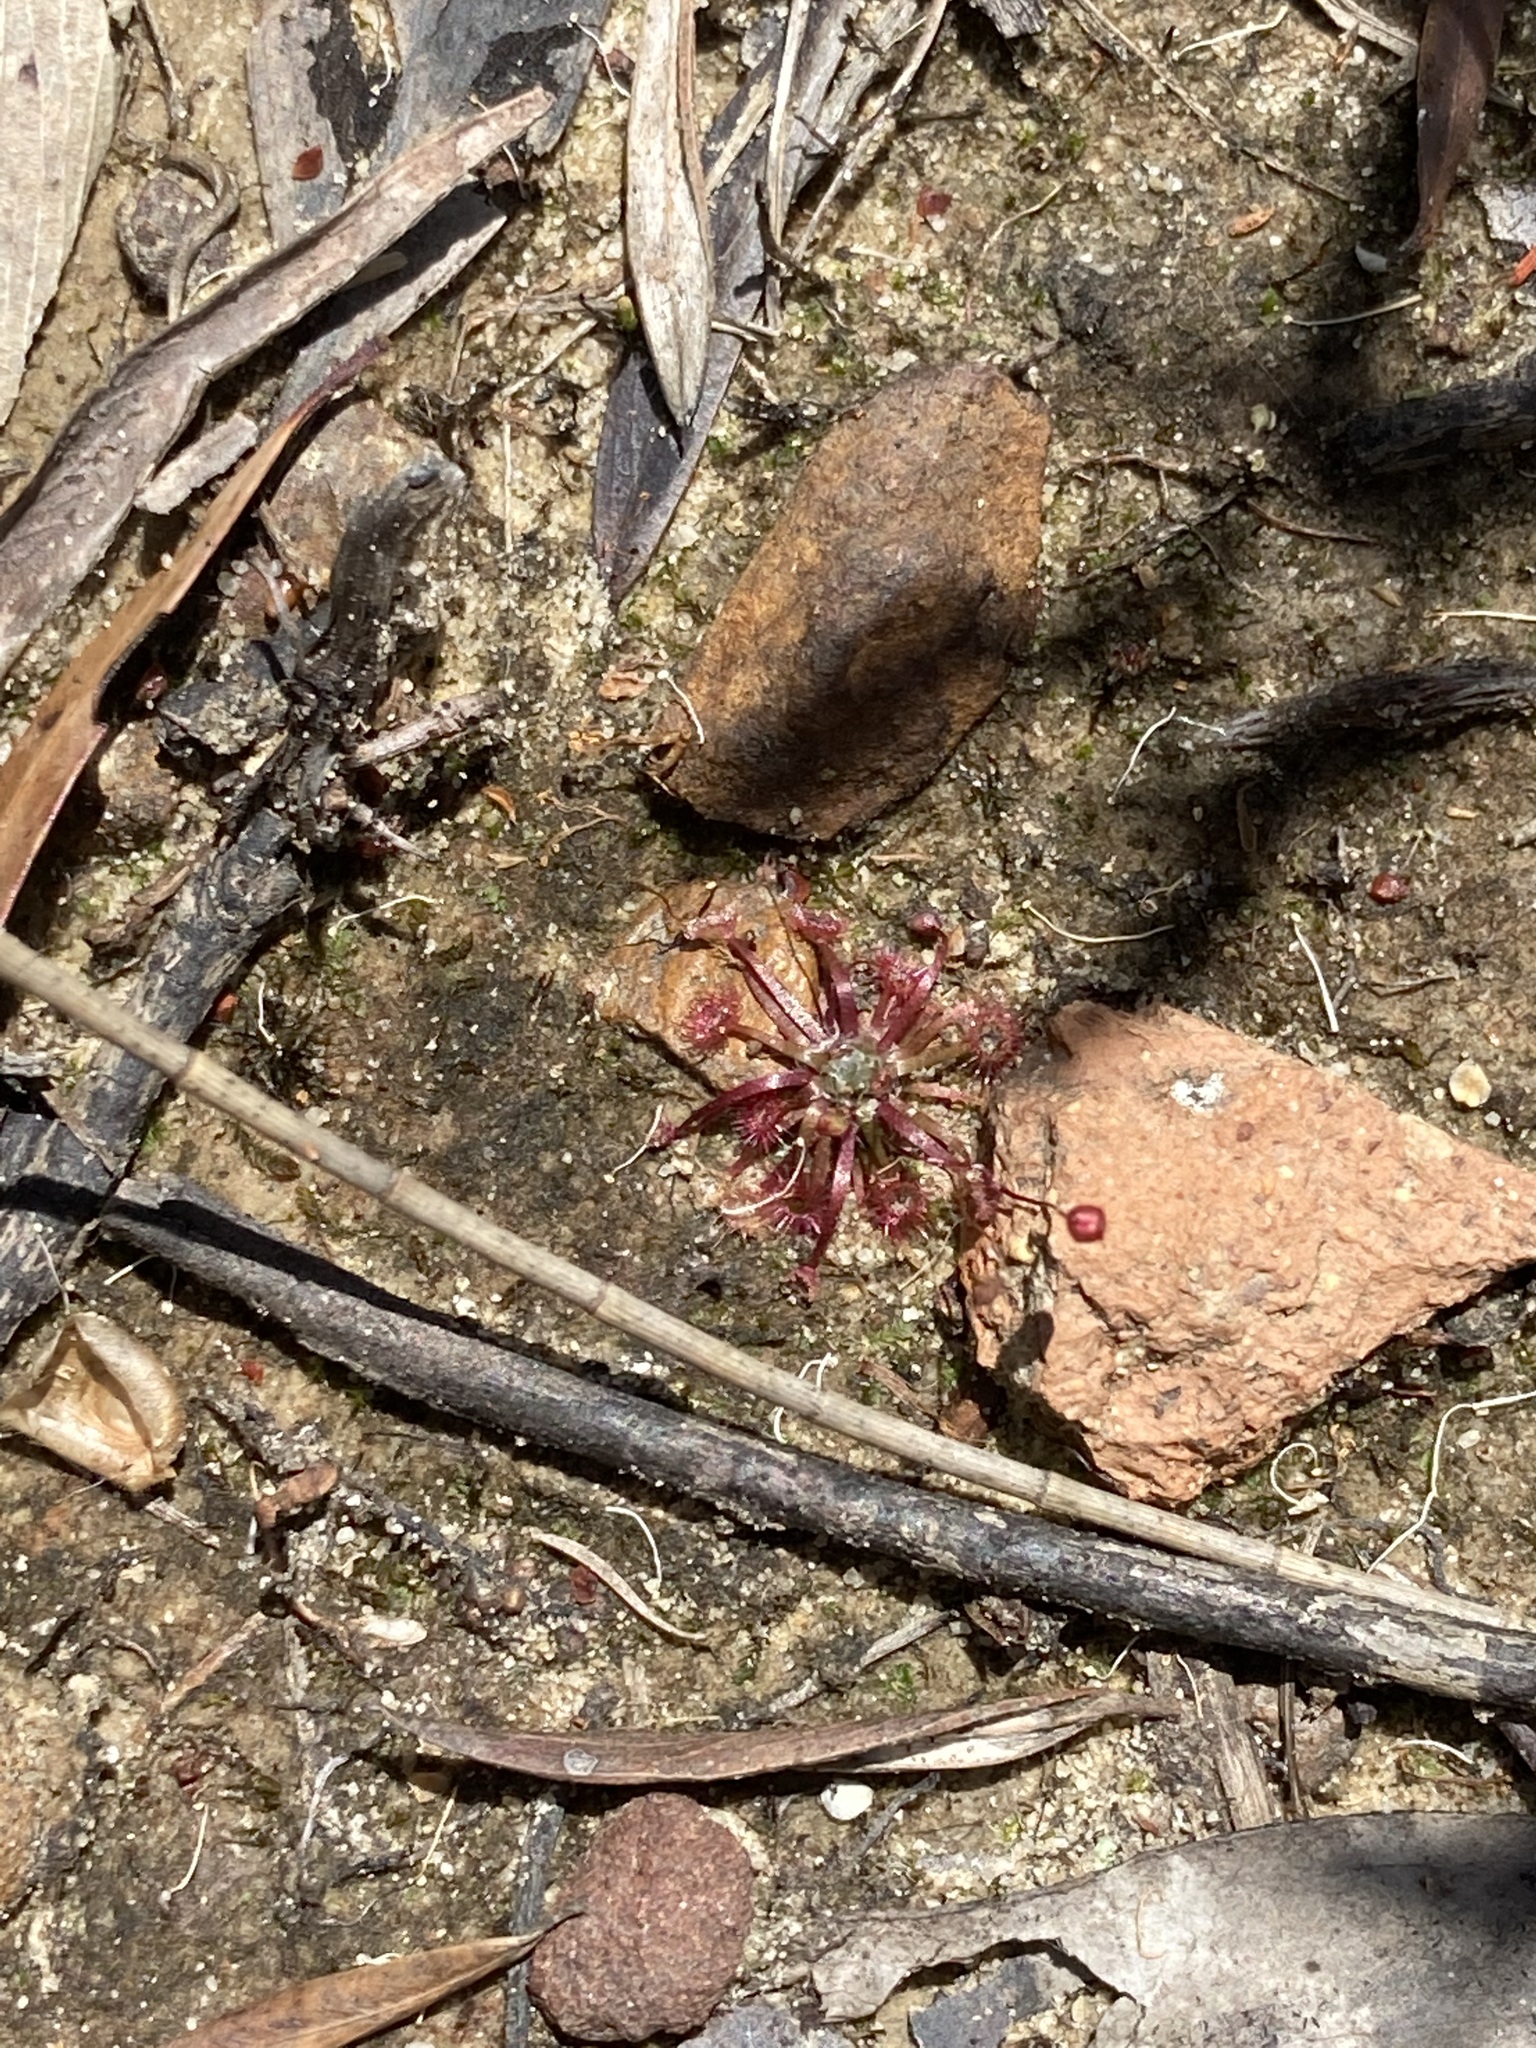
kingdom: Plantae
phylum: Tracheophyta
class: Magnoliopsida
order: Caryophyllales
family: Droseraceae
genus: Drosera
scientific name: Drosera pygmaea
